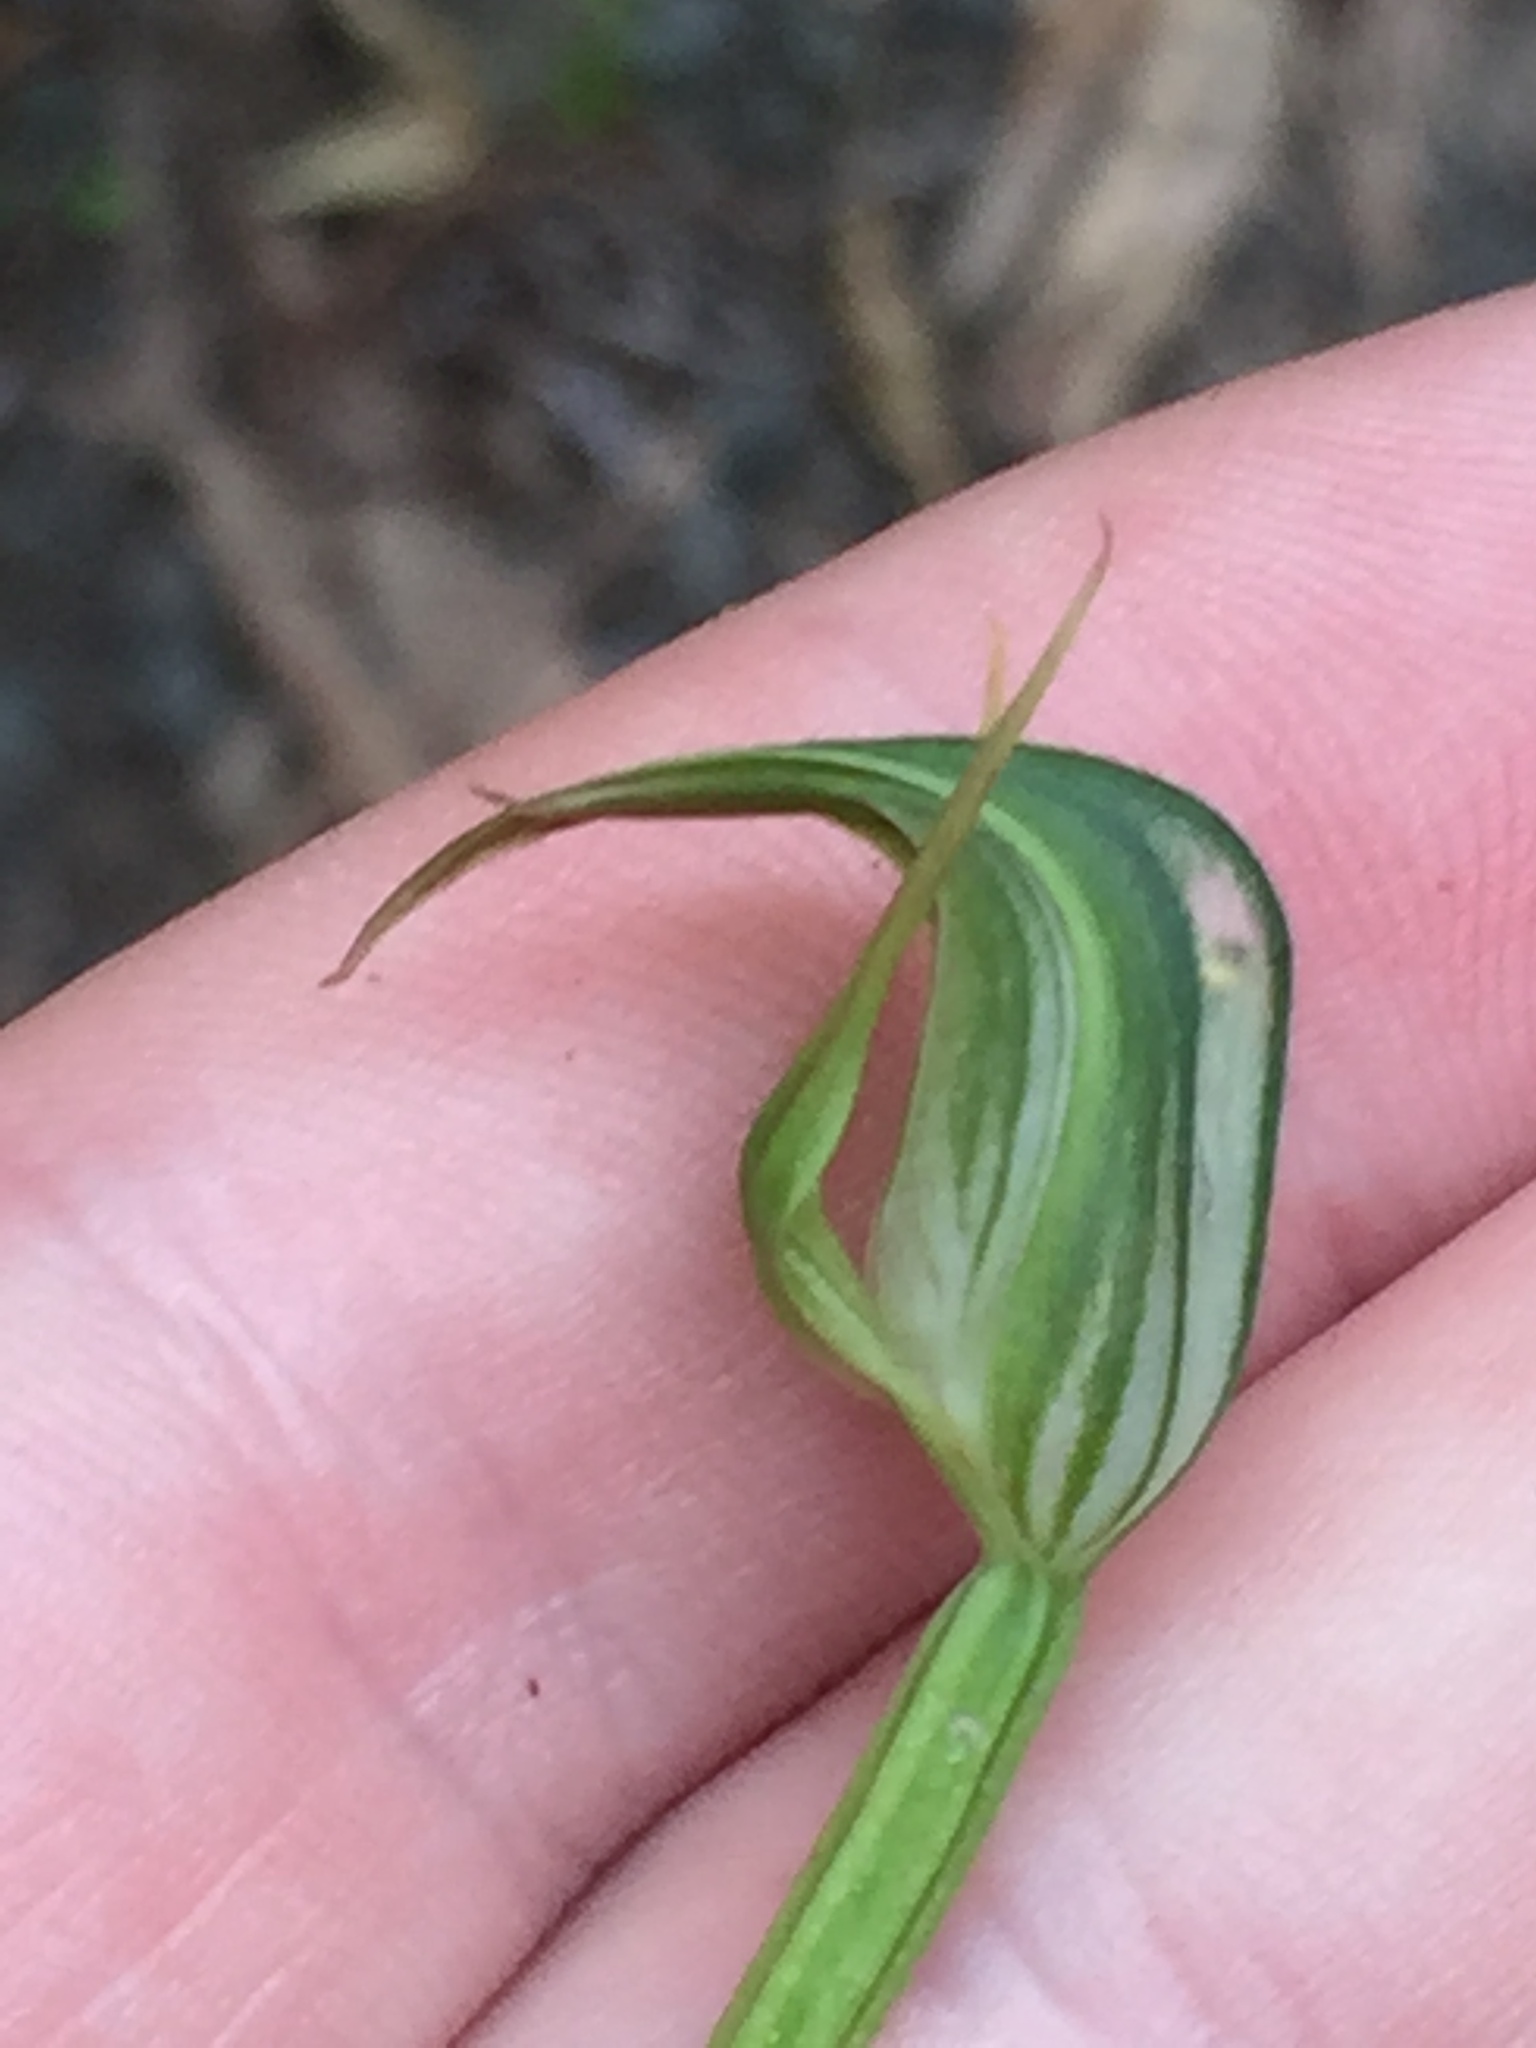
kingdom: Plantae
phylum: Tracheophyta
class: Liliopsida
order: Asparagales
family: Orchidaceae
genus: Pterostylis
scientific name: Pterostylis graminea
